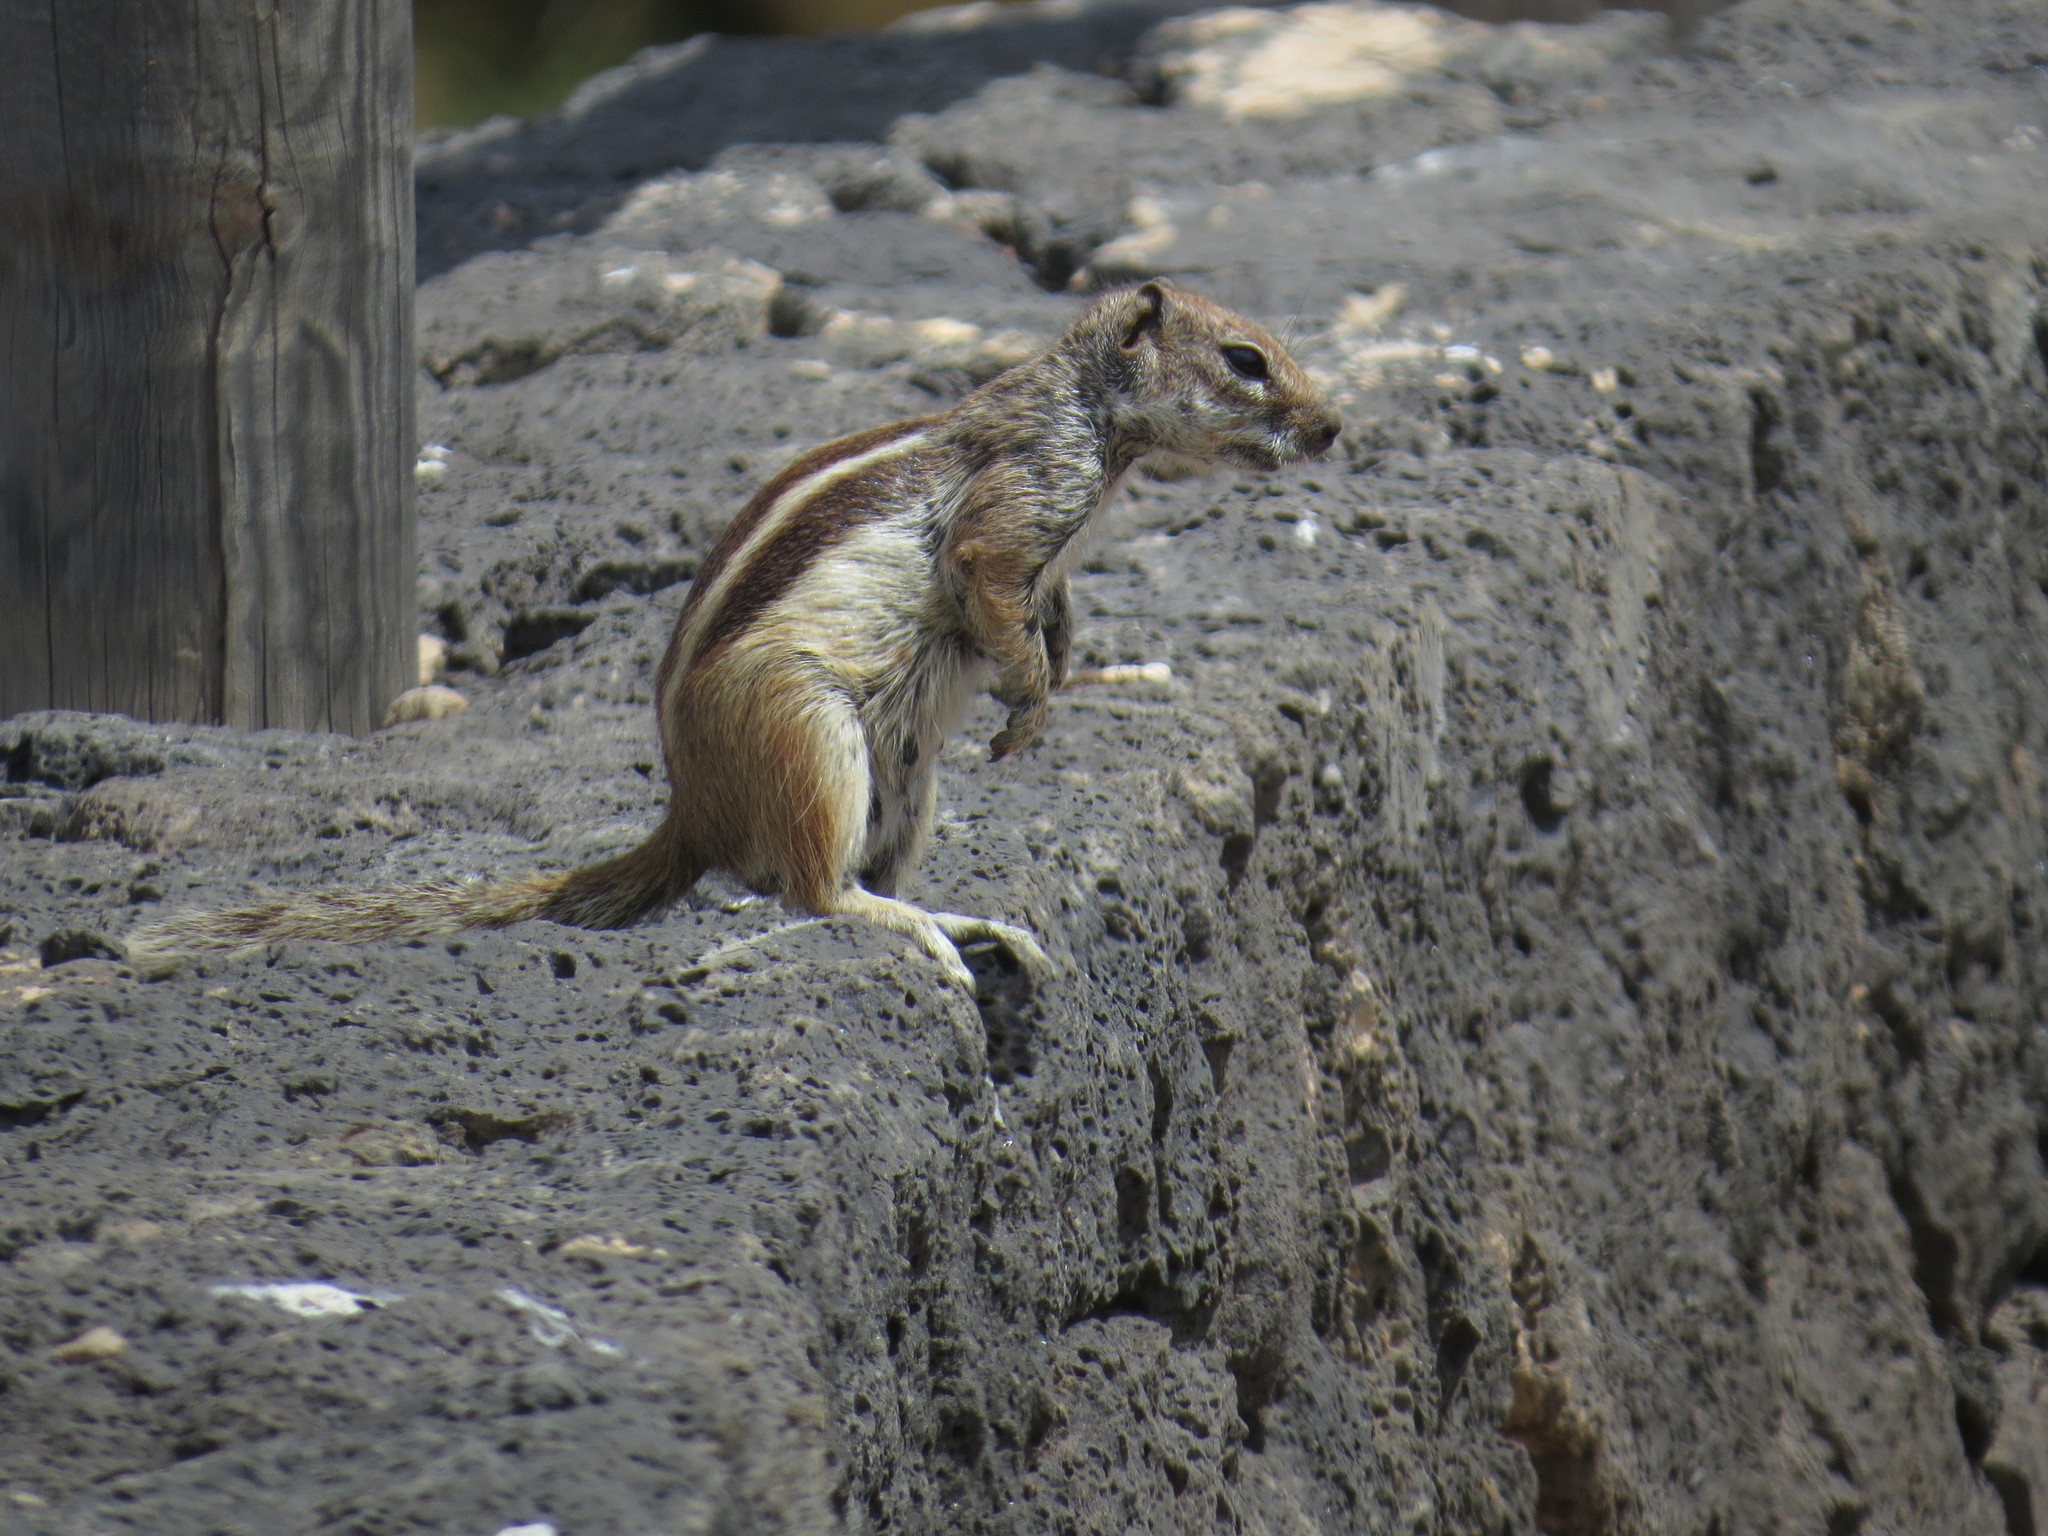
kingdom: Animalia
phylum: Chordata
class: Mammalia
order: Rodentia
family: Sciuridae
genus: Atlantoxerus
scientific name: Atlantoxerus getulus
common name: Barbary ground squirrel
